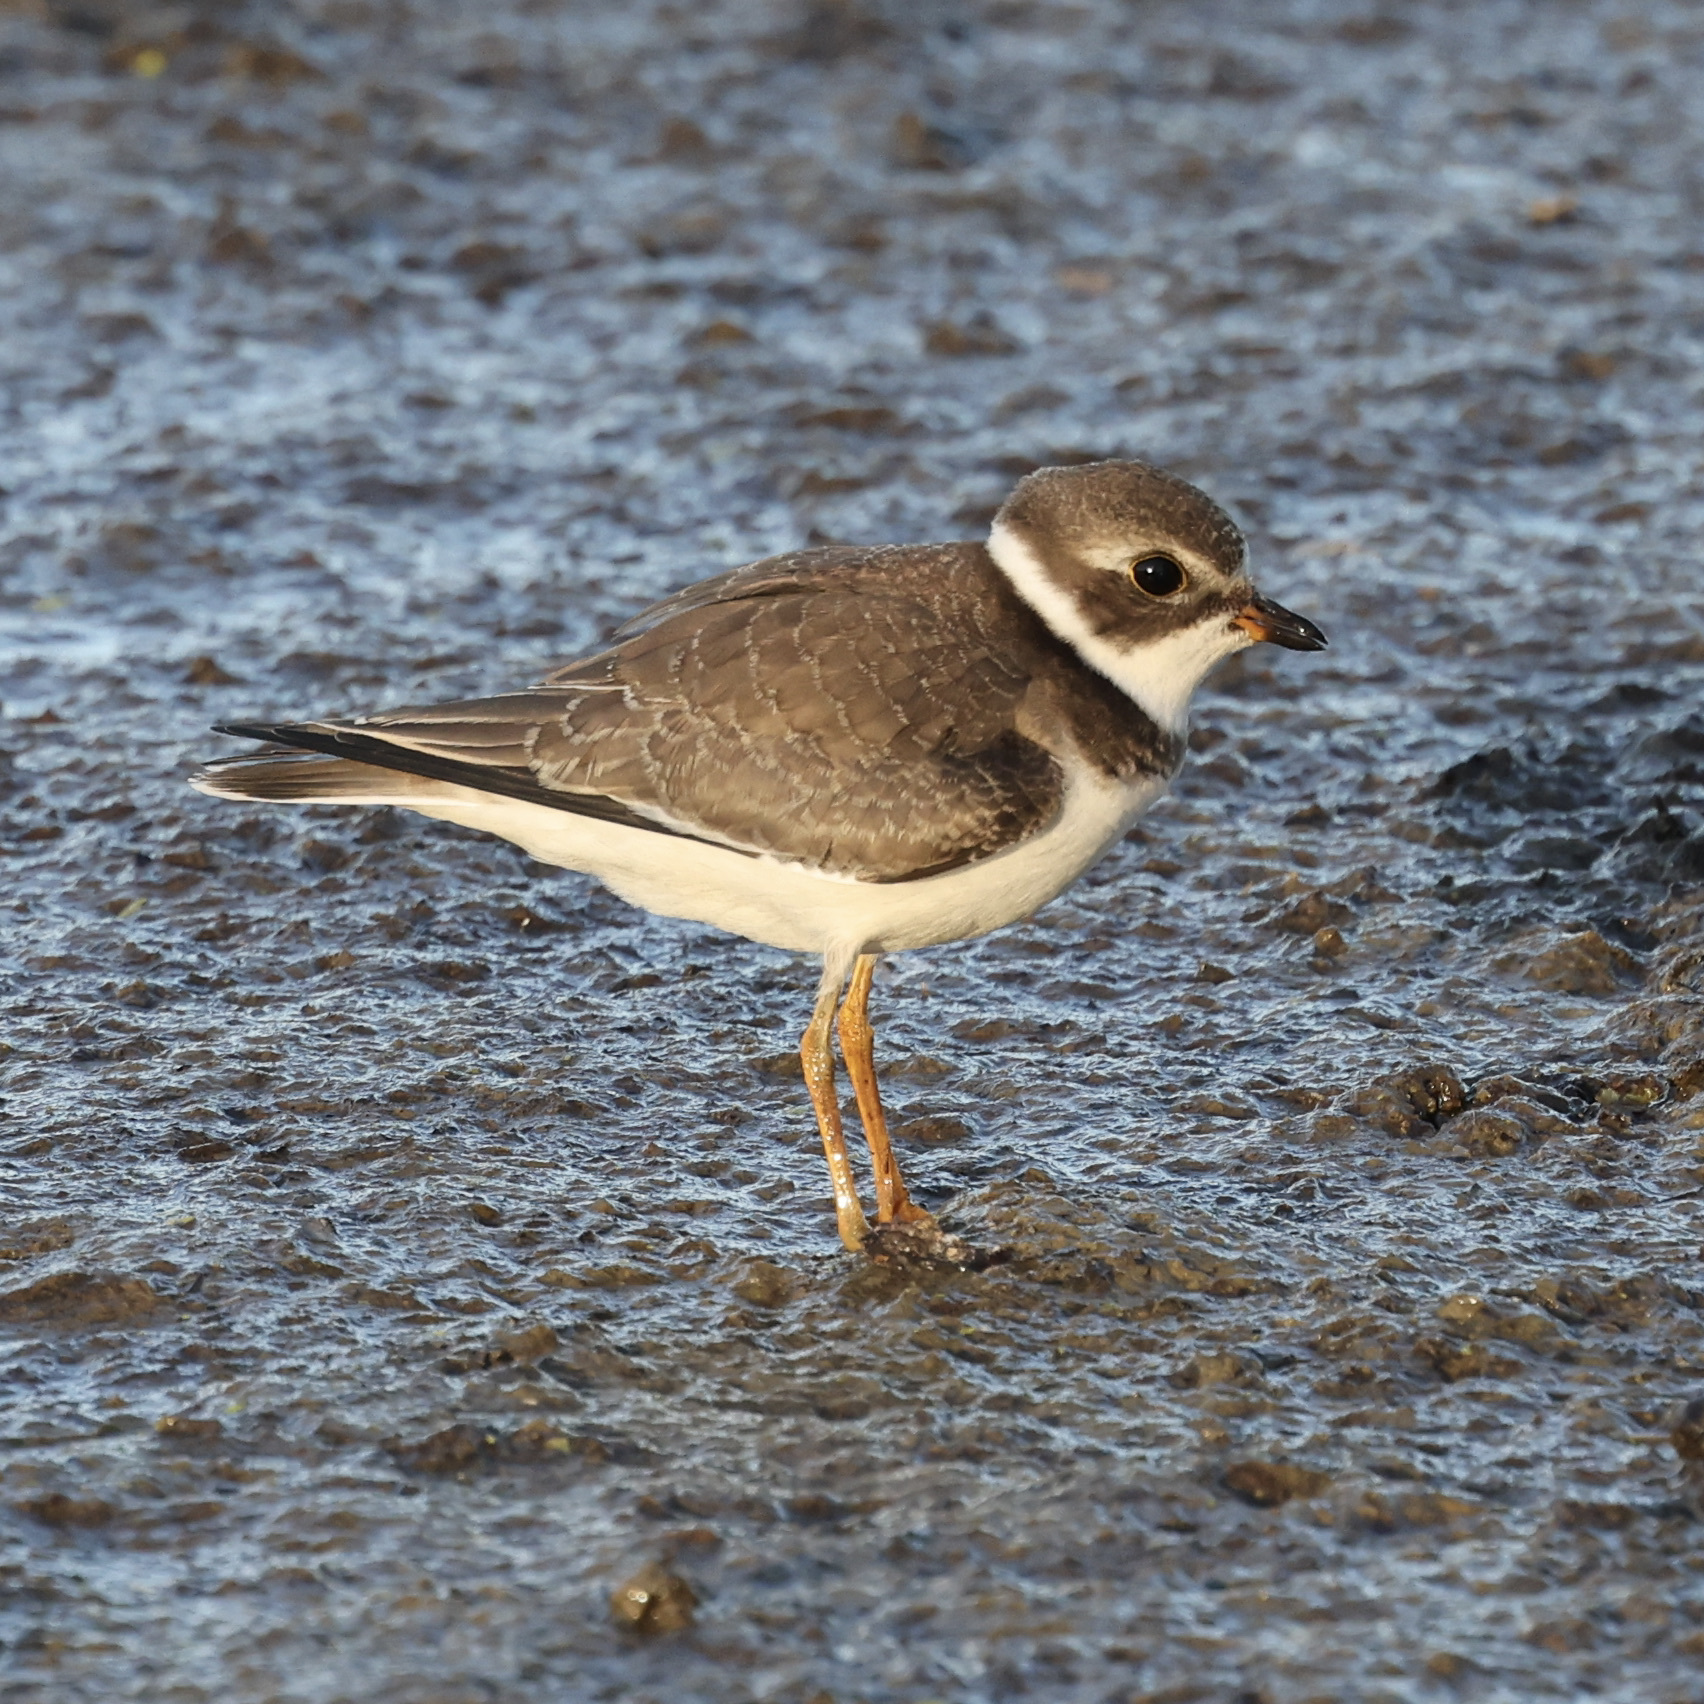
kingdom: Animalia
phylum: Chordata
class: Aves
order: Charadriiformes
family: Charadriidae
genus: Charadrius
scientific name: Charadrius semipalmatus
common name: Semipalmated plover
